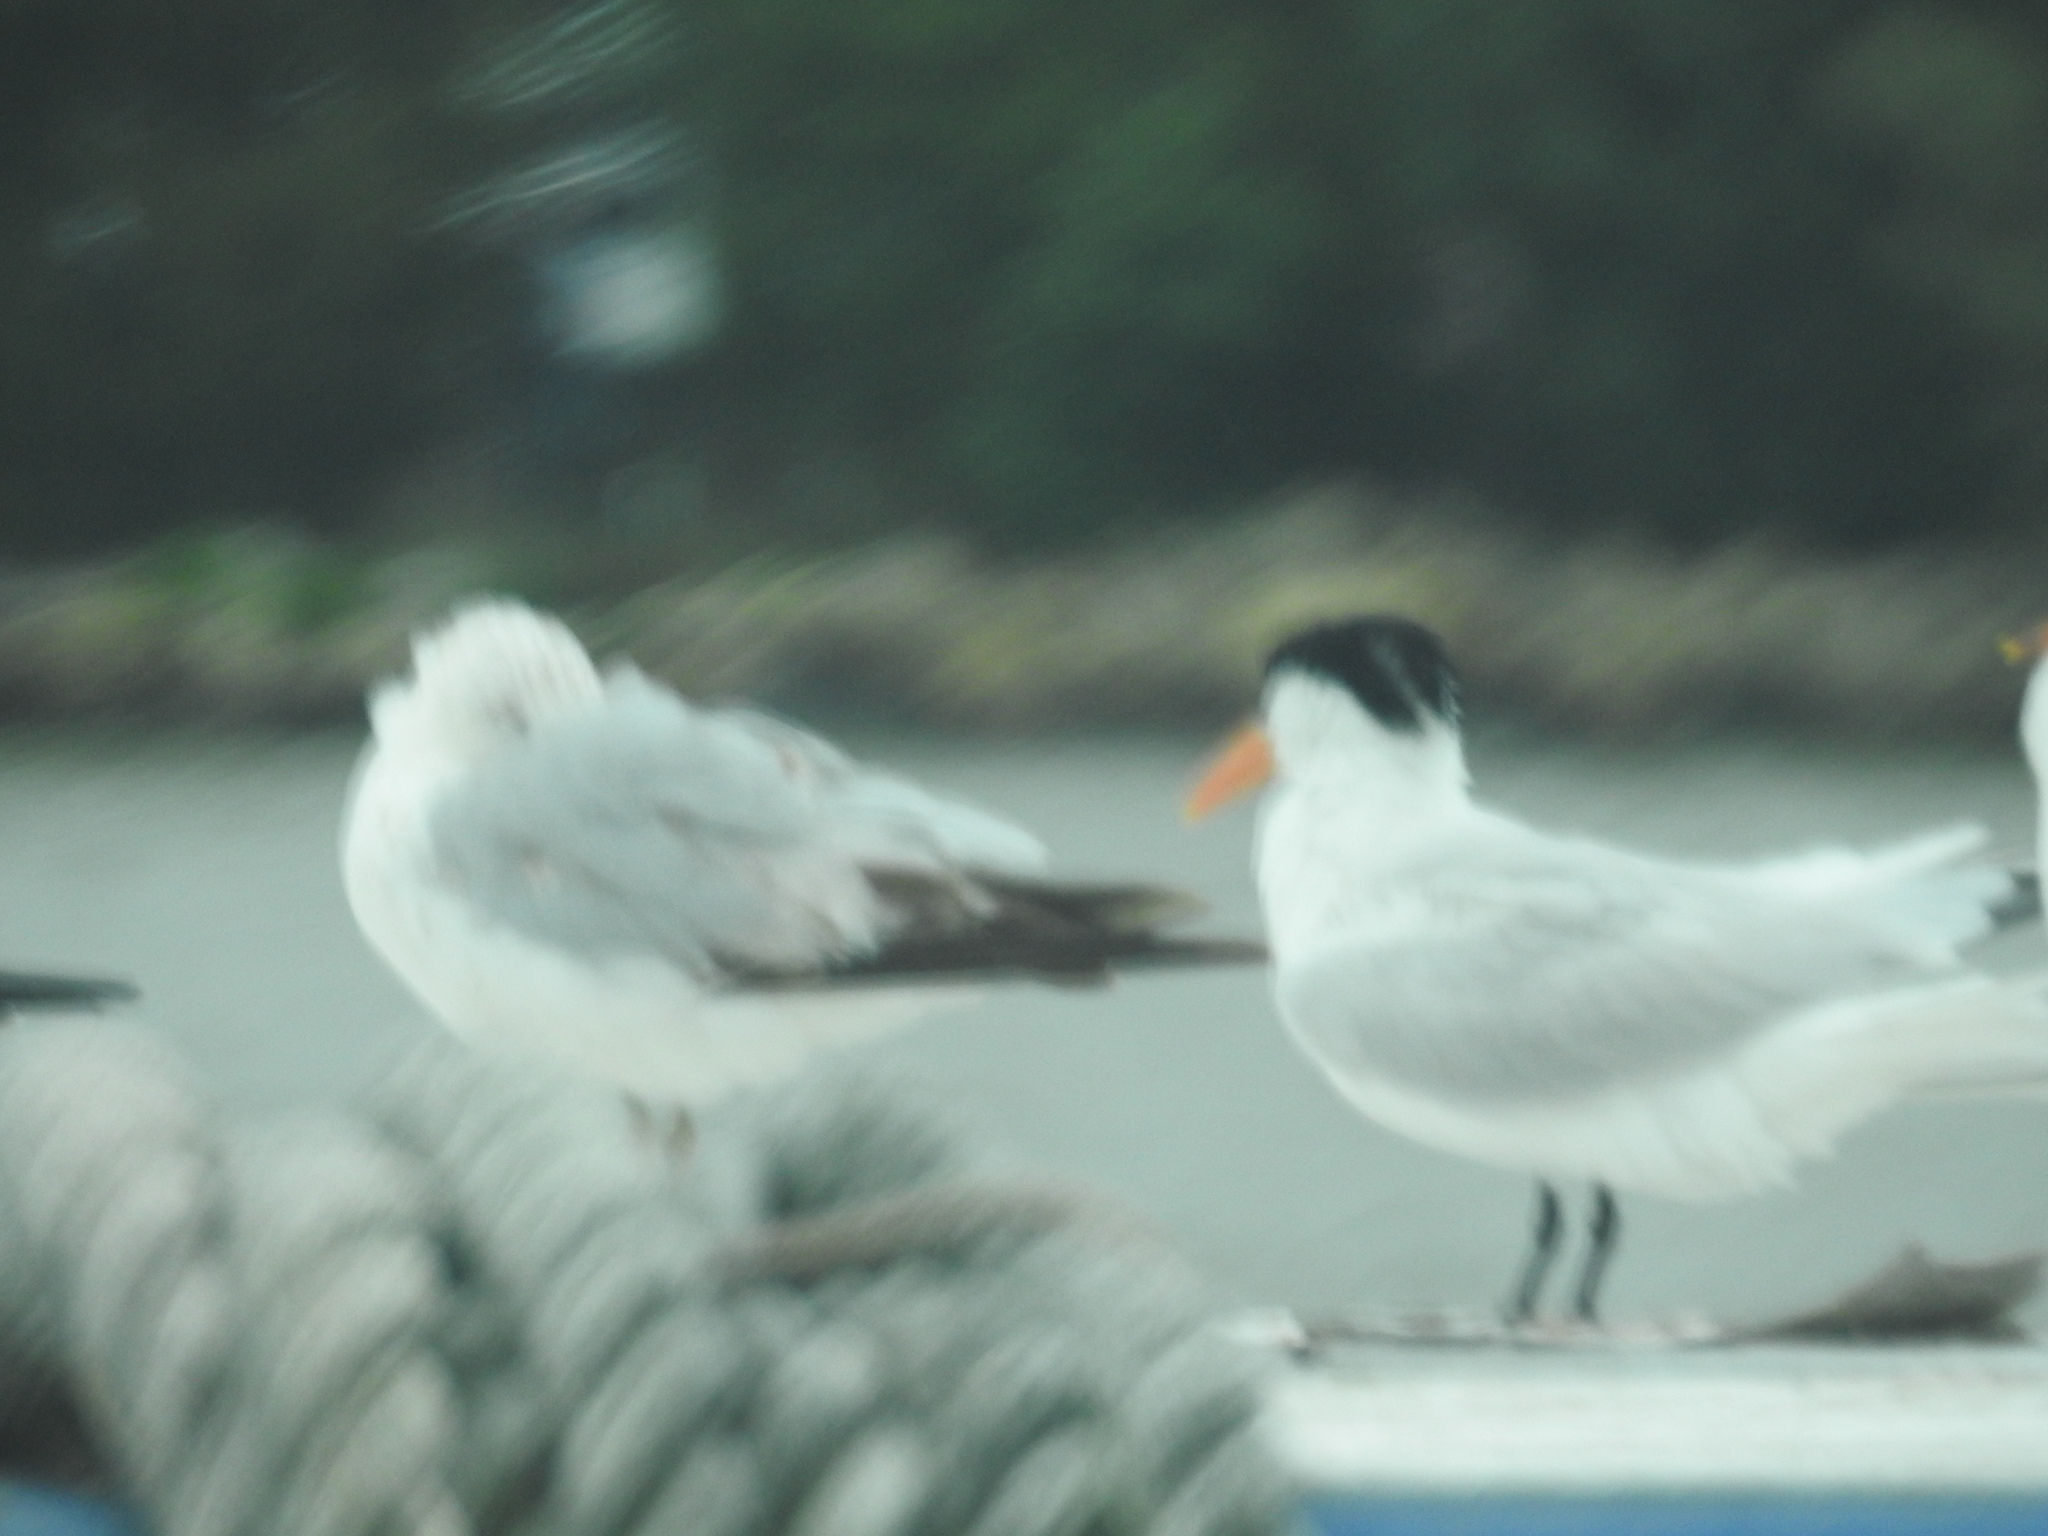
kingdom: Animalia
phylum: Chordata
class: Aves
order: Charadriiformes
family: Laridae
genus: Thalasseus
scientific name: Thalasseus maximus
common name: Royal tern
